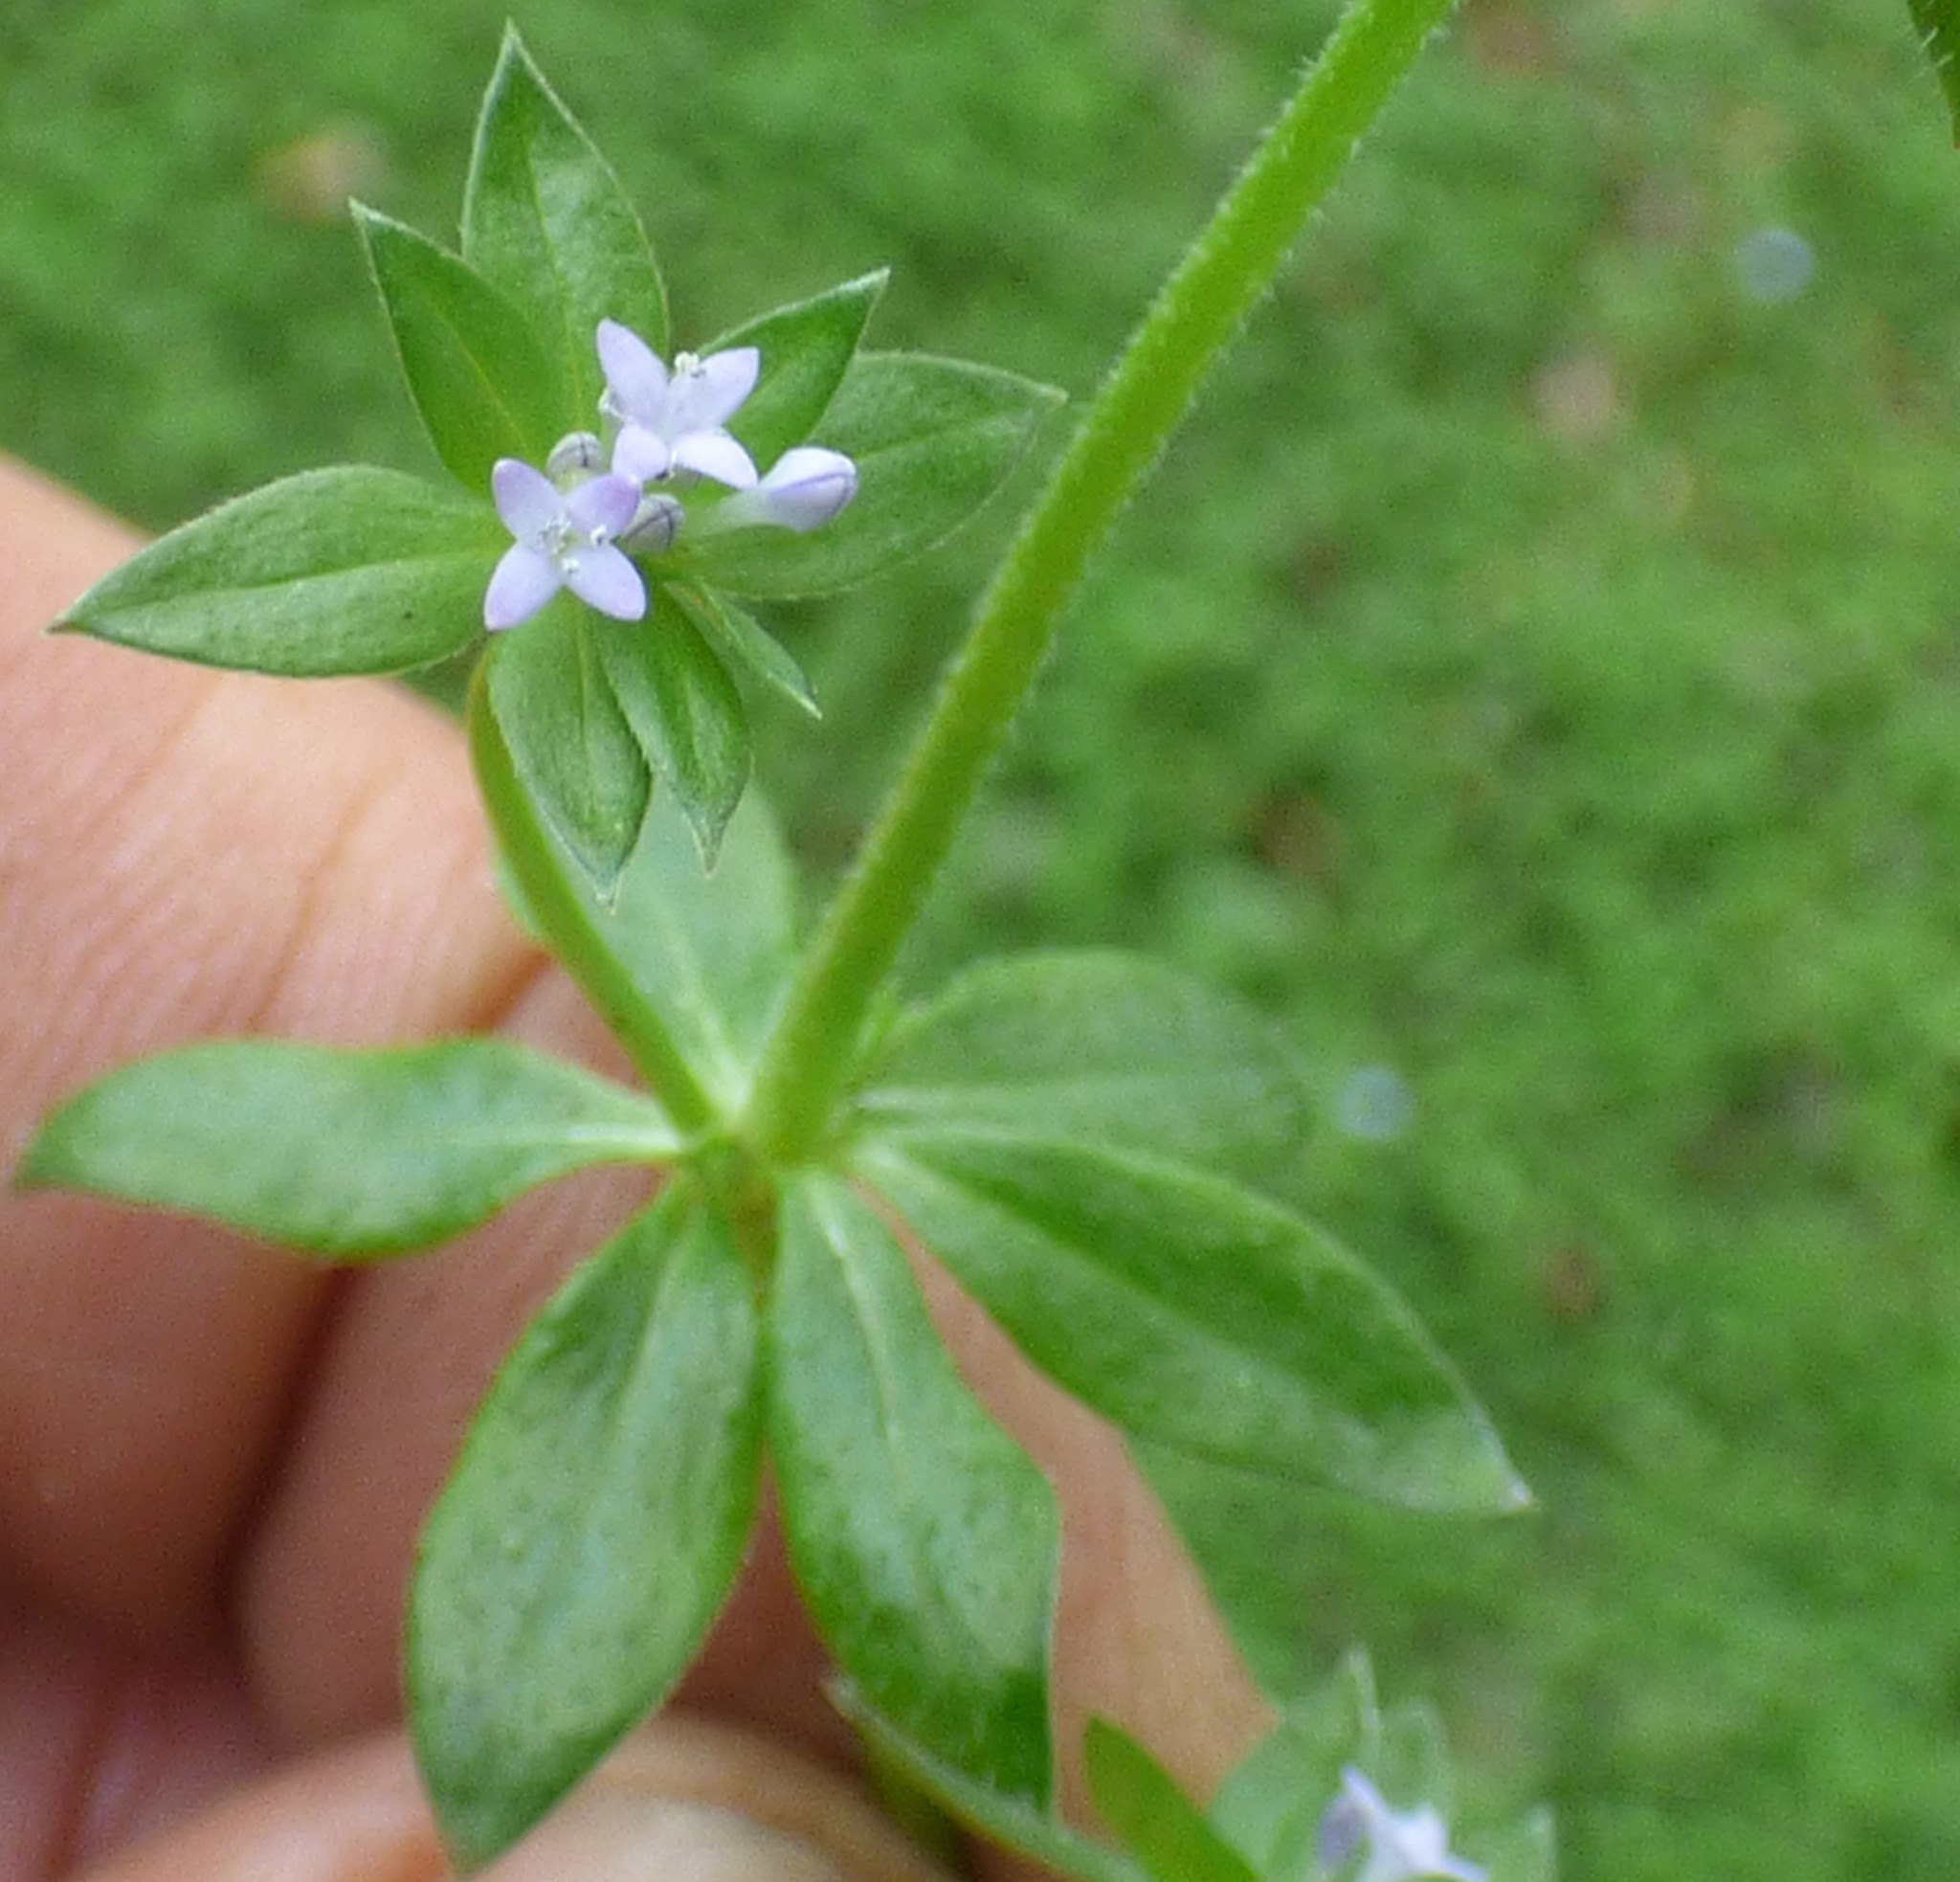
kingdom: Plantae
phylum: Tracheophyta
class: Magnoliopsida
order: Gentianales
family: Rubiaceae
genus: Sherardia
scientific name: Sherardia arvensis
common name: Field madder
